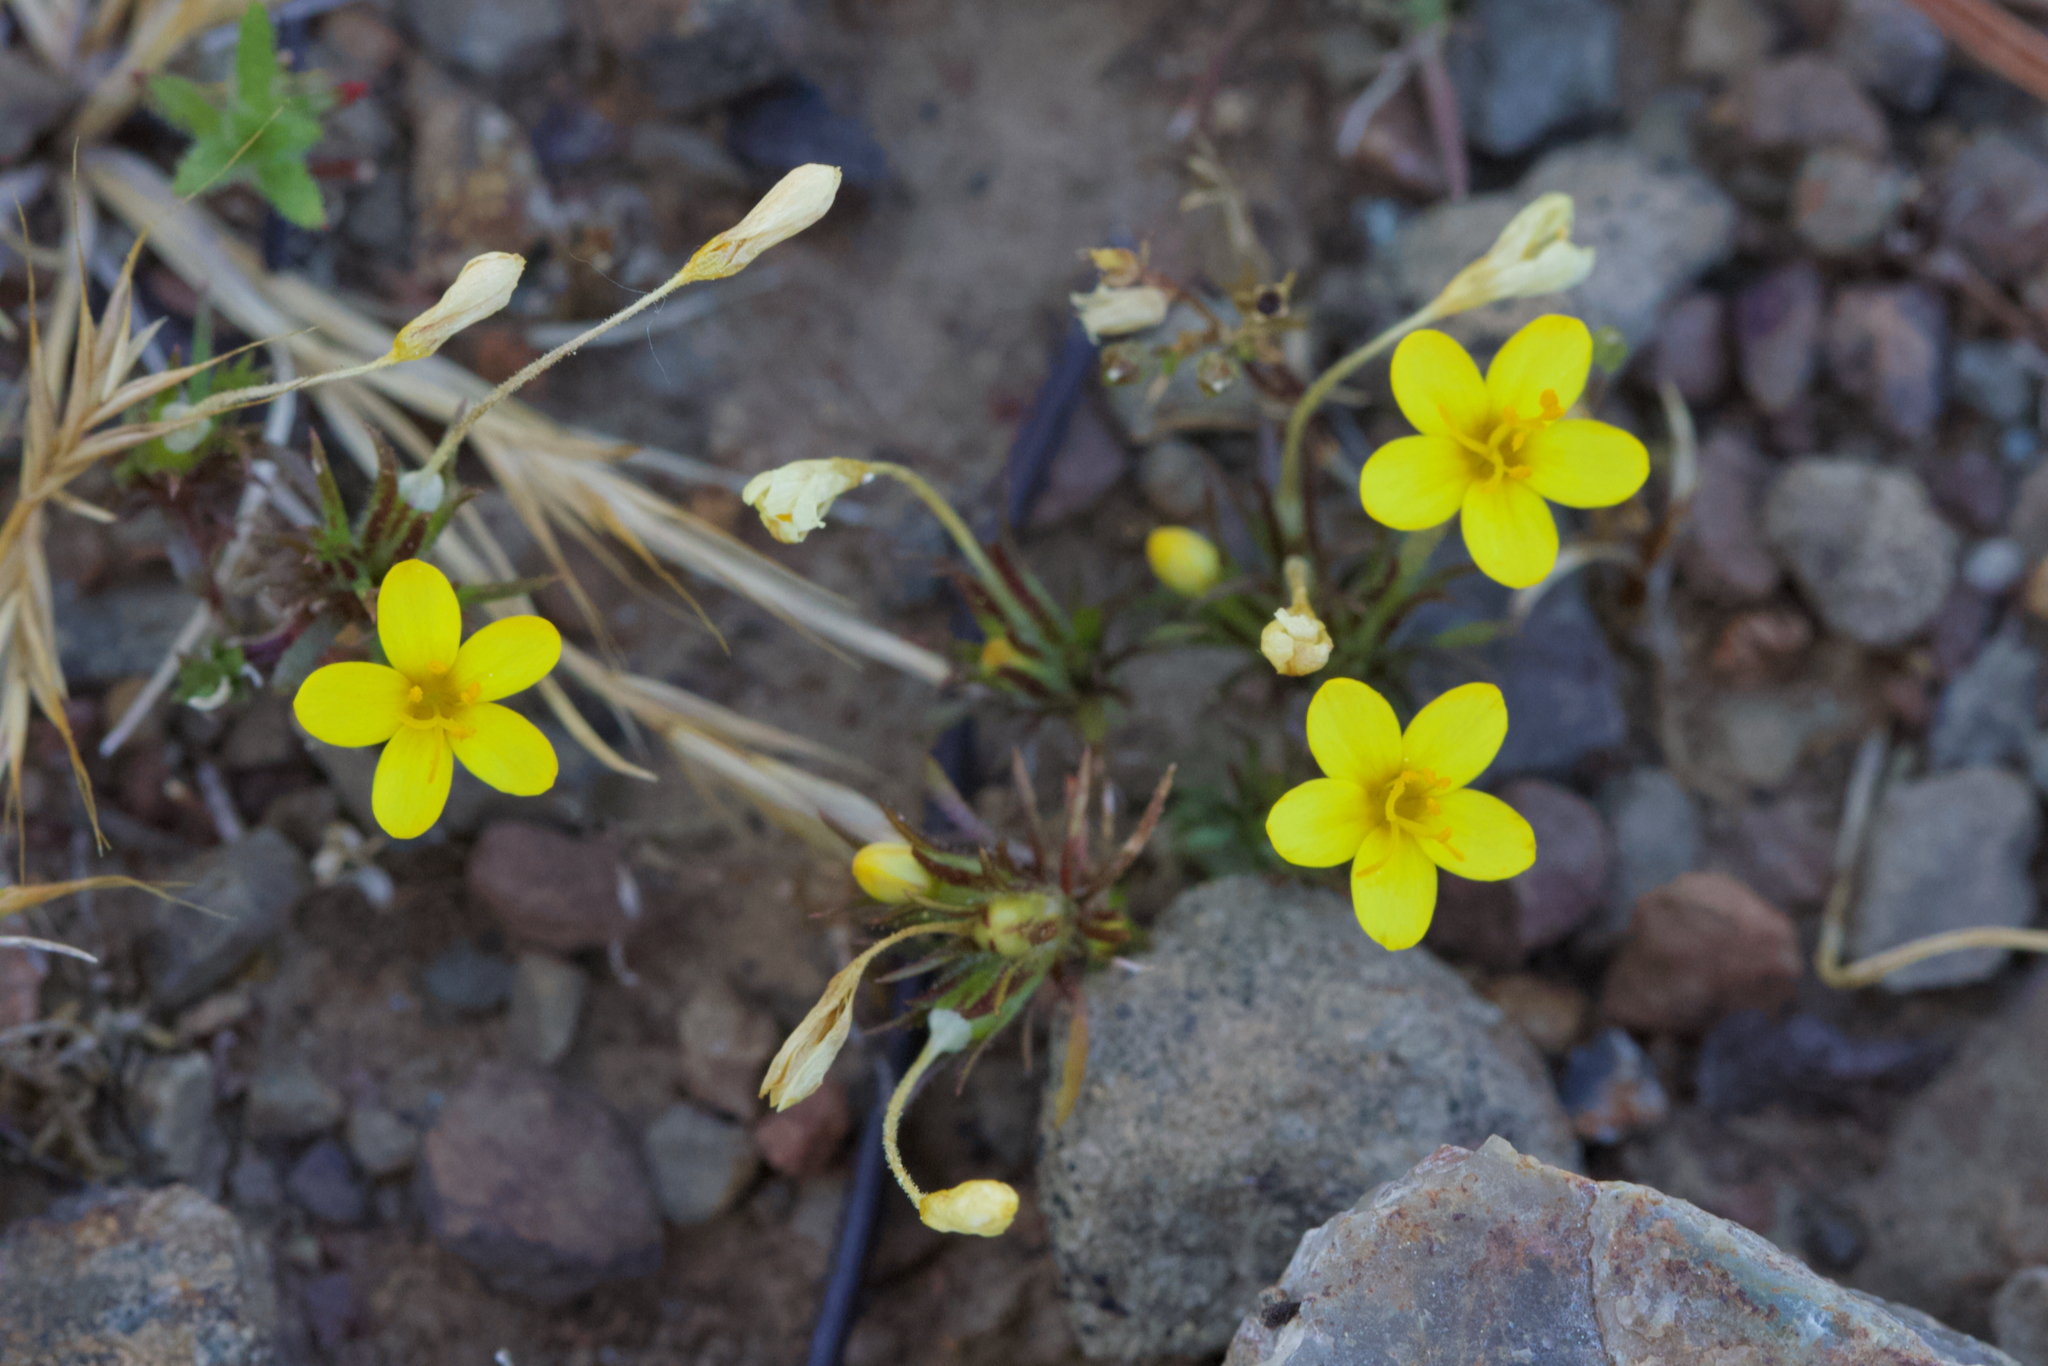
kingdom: Plantae
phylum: Tracheophyta
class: Magnoliopsida
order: Ericales
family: Polemoniaceae
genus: Leptosiphon
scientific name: Leptosiphon acicularis
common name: Bristly linanthus
